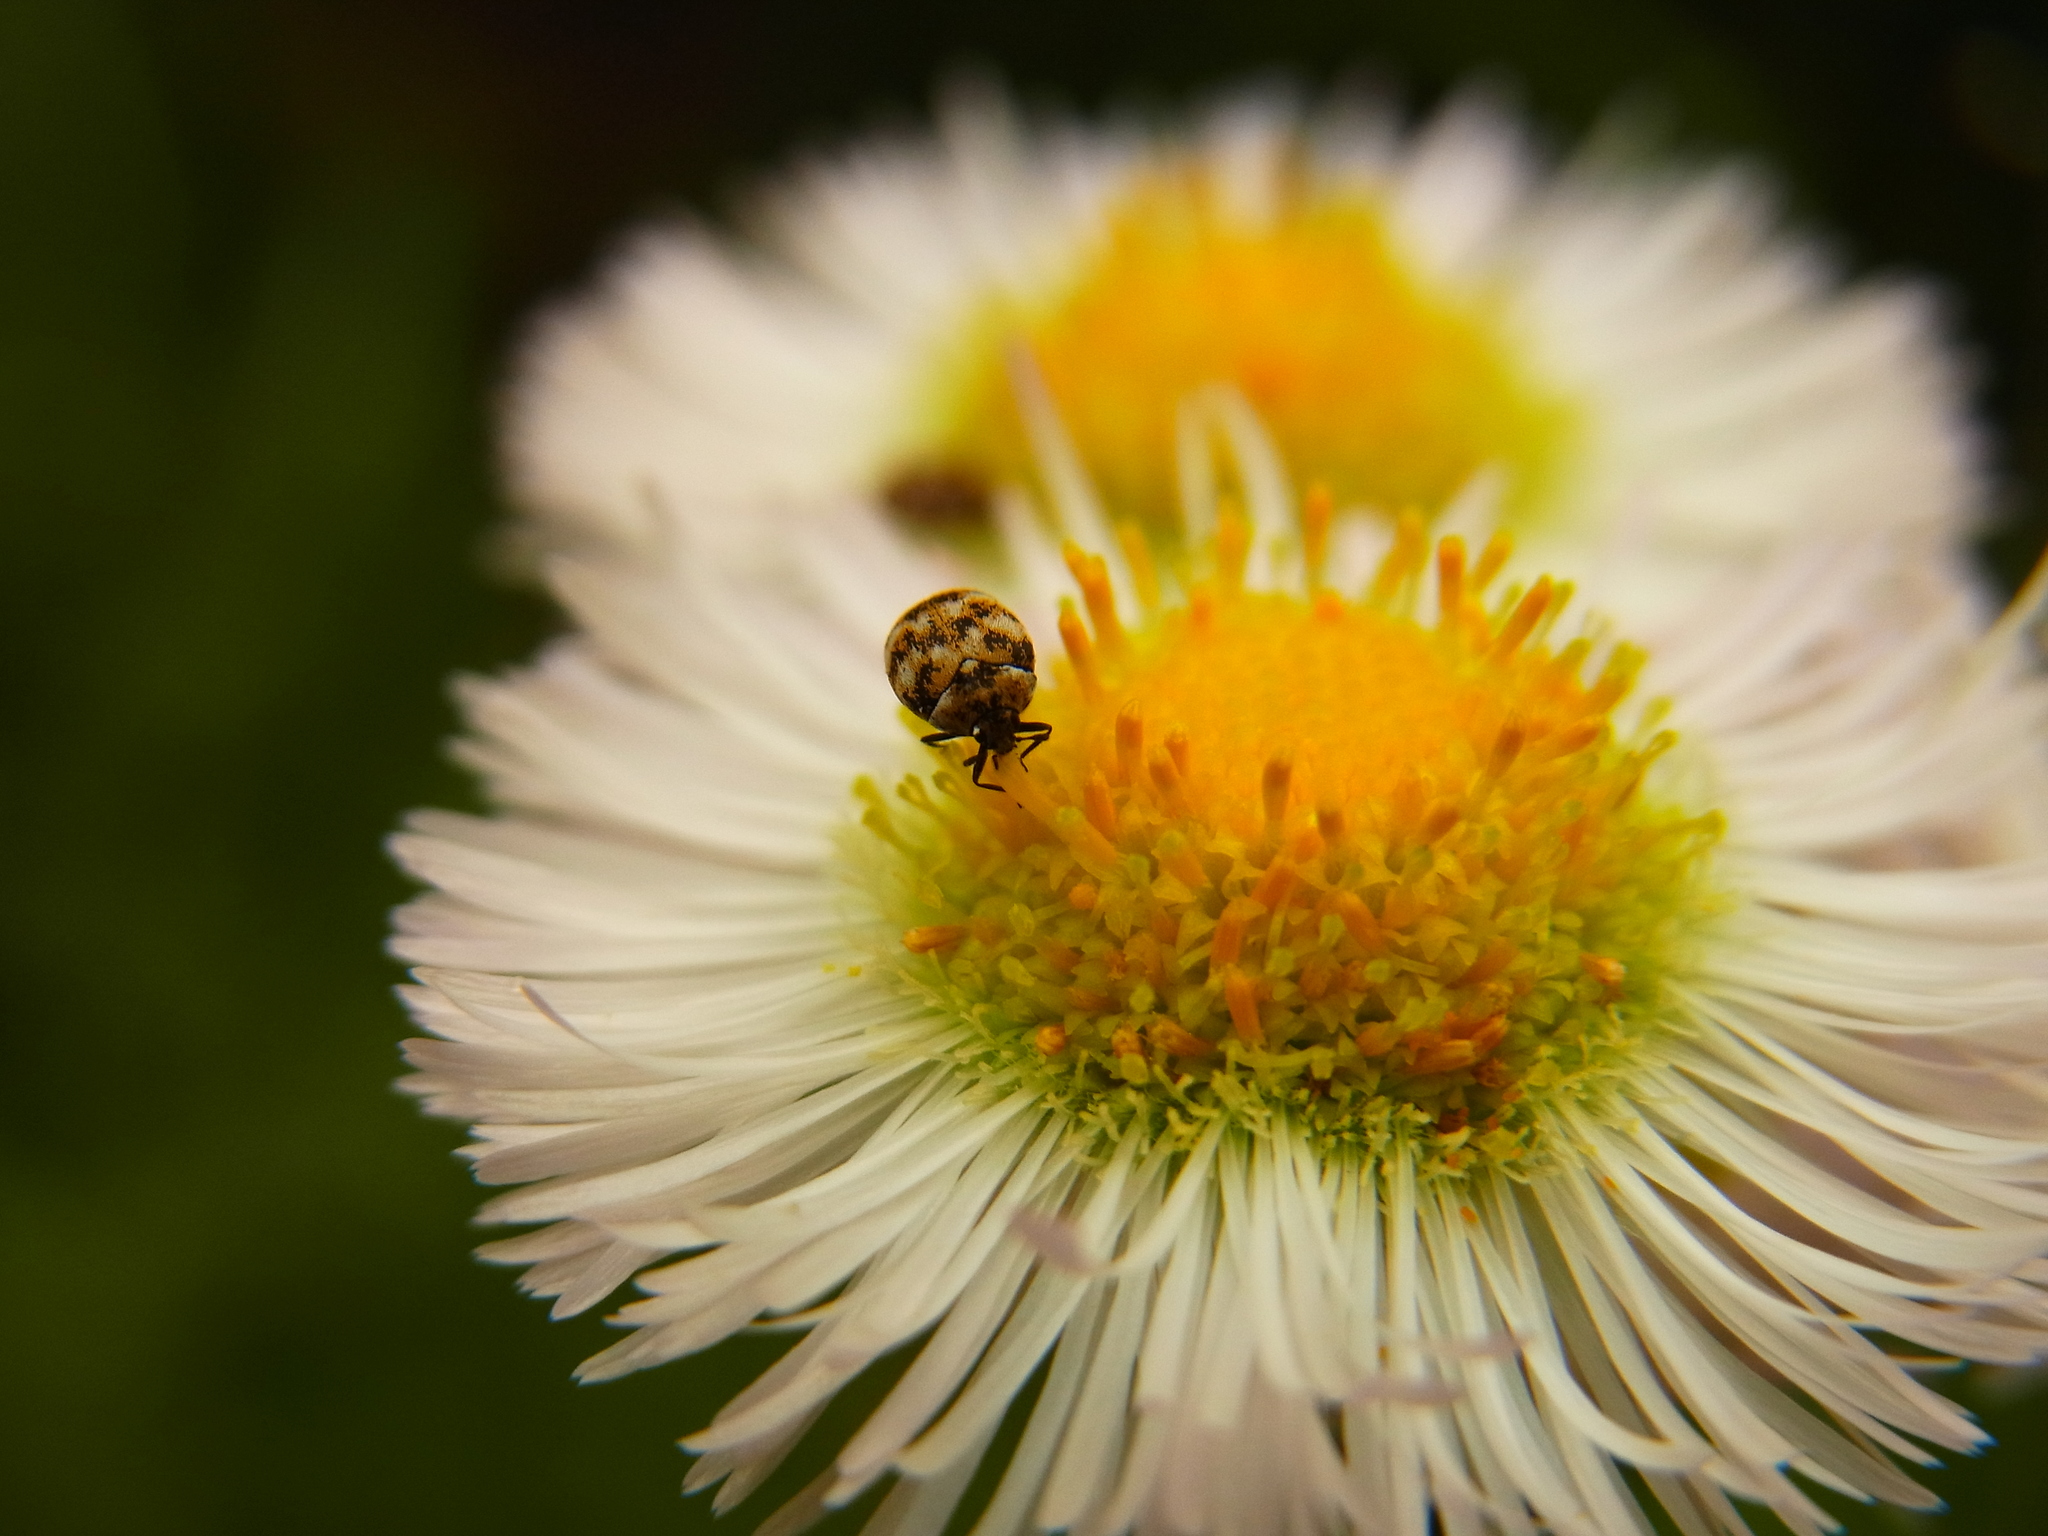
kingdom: Animalia
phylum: Arthropoda
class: Insecta
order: Coleoptera
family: Dermestidae
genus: Anthrenus
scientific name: Anthrenus verbasci
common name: Varied carpet beetle
